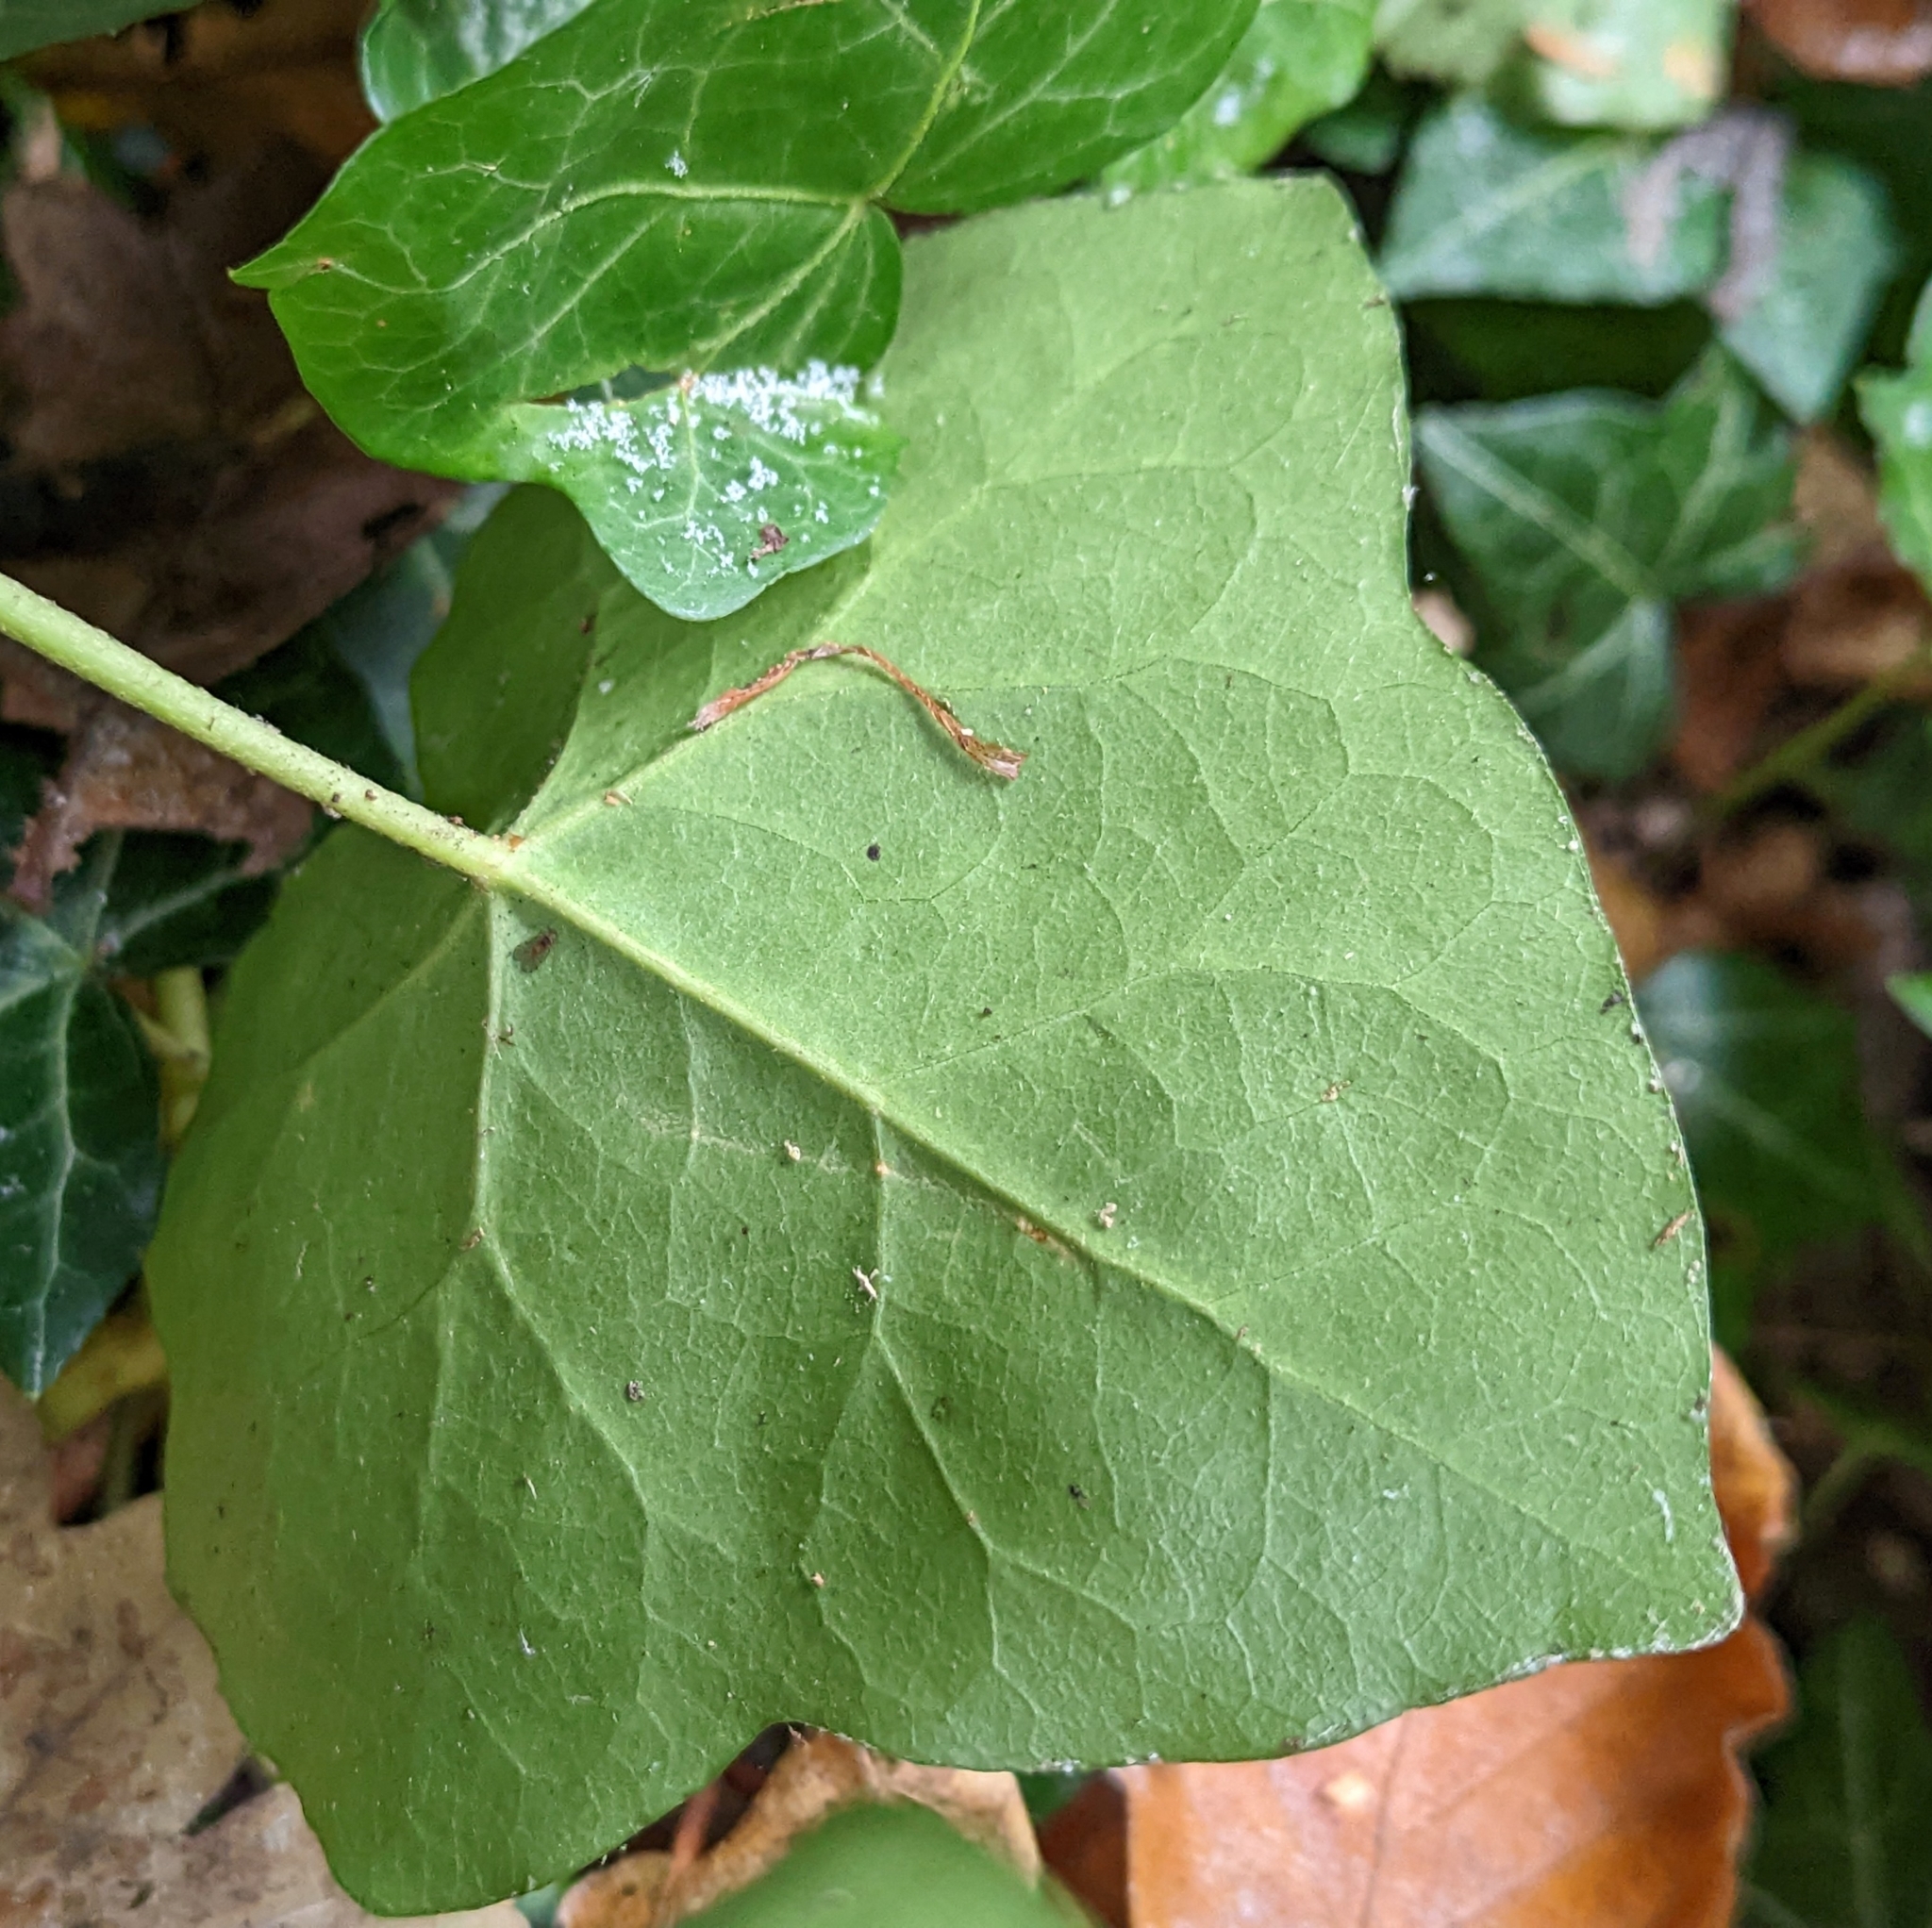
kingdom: Plantae
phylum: Tracheophyta
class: Magnoliopsida
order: Apiales
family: Araliaceae
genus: Hedera
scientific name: Hedera helix
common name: Ivy
